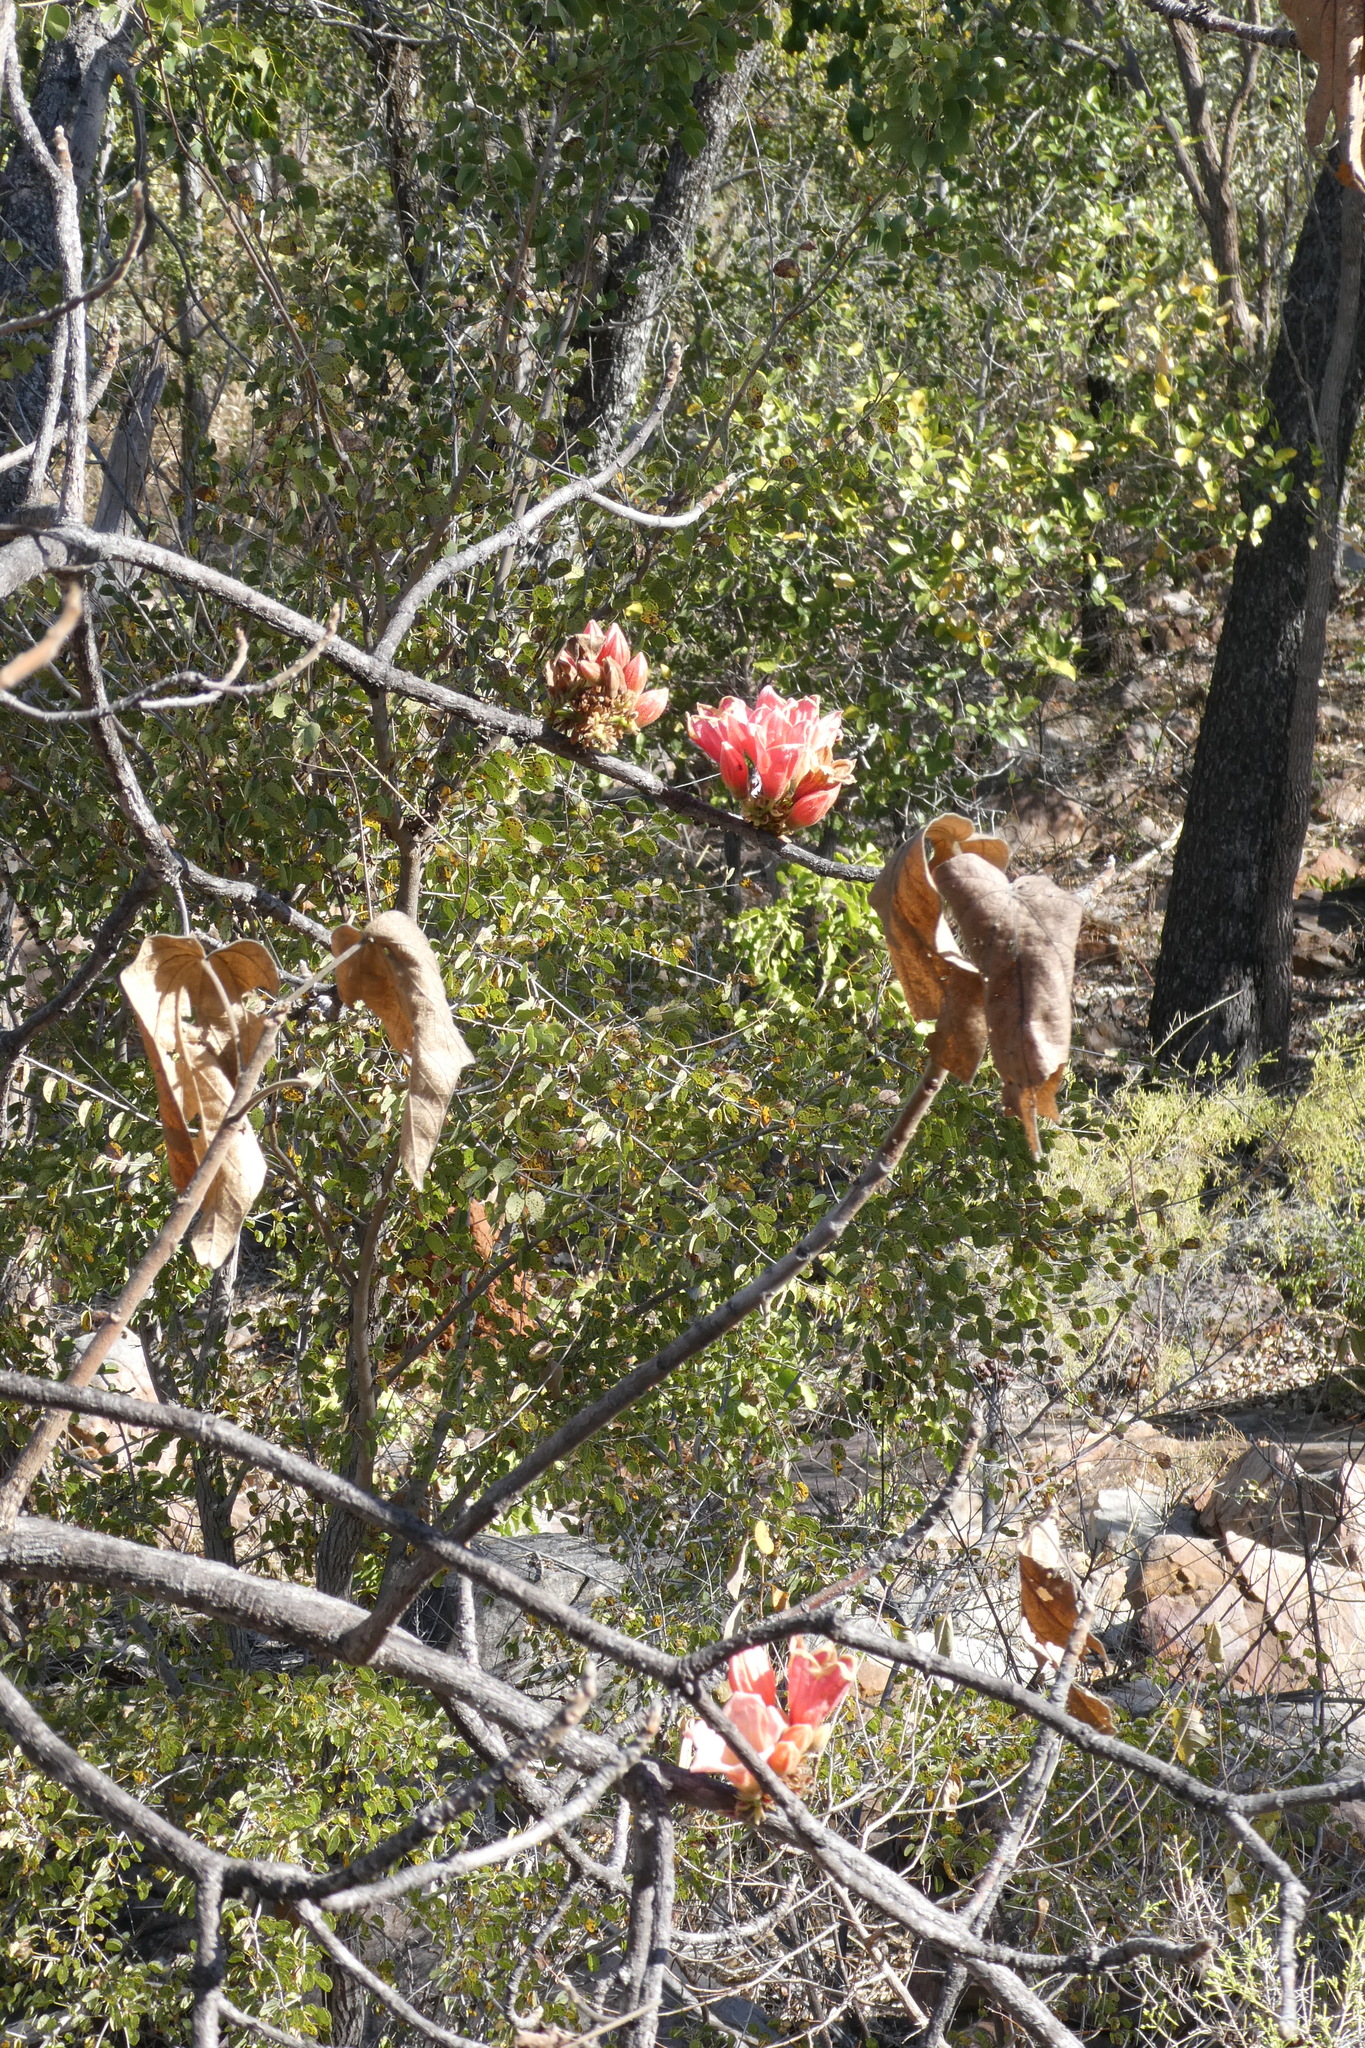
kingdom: Plantae
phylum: Tracheophyta
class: Magnoliopsida
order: Malvales
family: Malvaceae
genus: Brachychiton
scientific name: Brachychiton viscidulus
